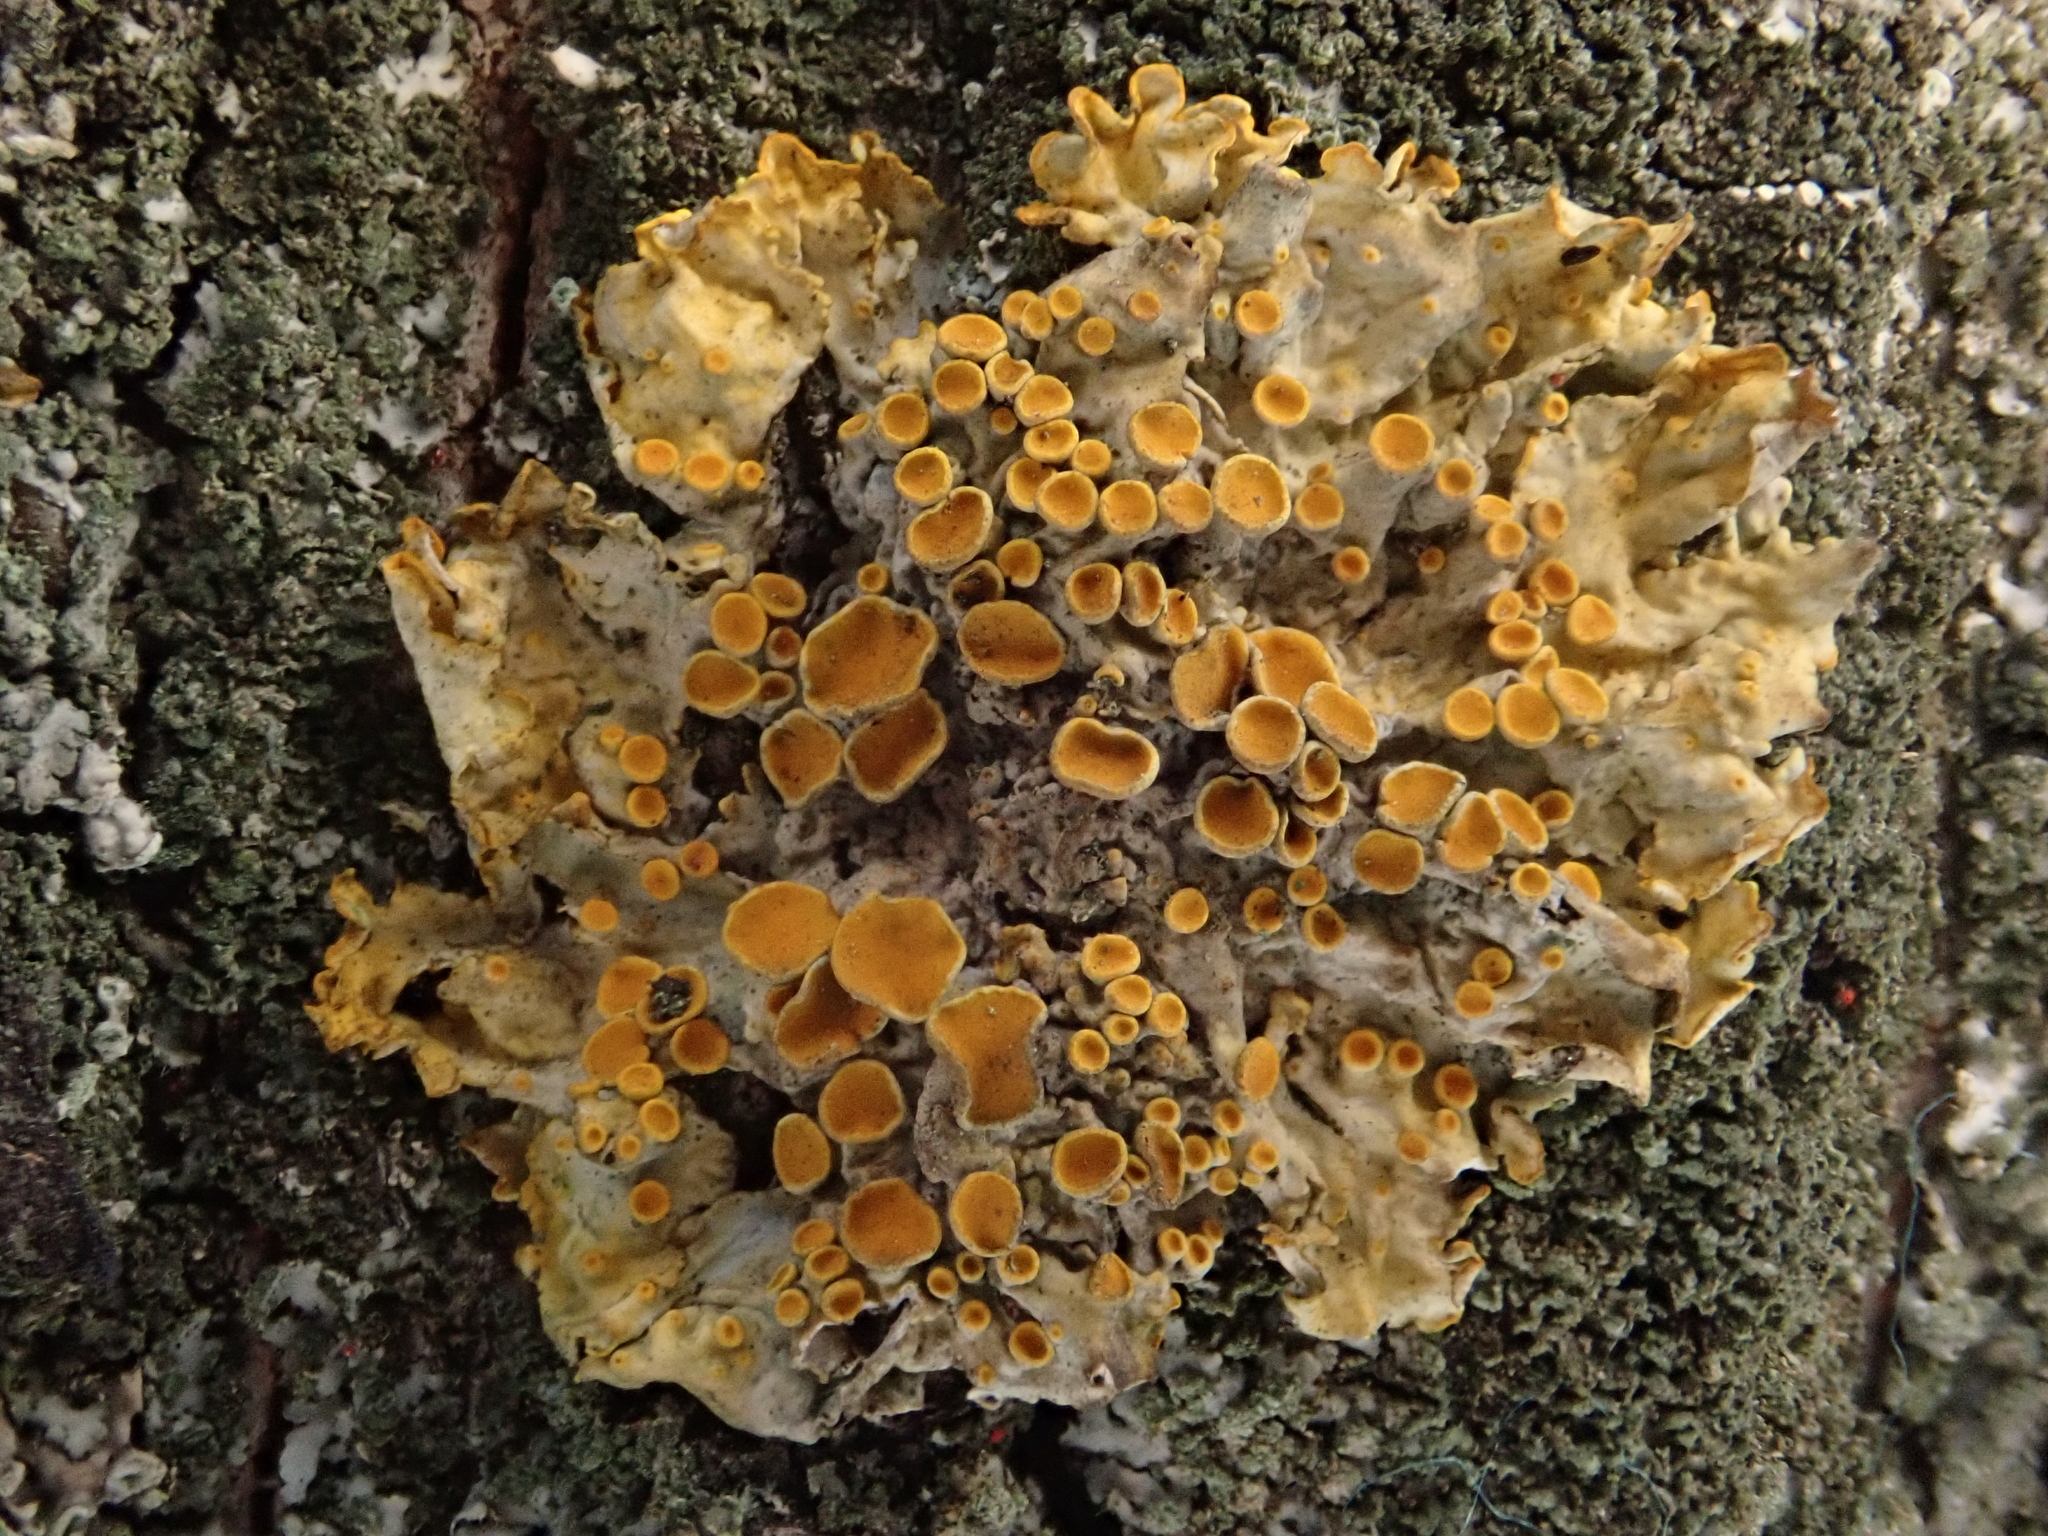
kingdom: Fungi
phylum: Ascomycota
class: Lecanoromycetes
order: Teloschistales
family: Teloschistaceae
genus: Xanthoria
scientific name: Xanthoria parietina
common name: Common orange lichen
